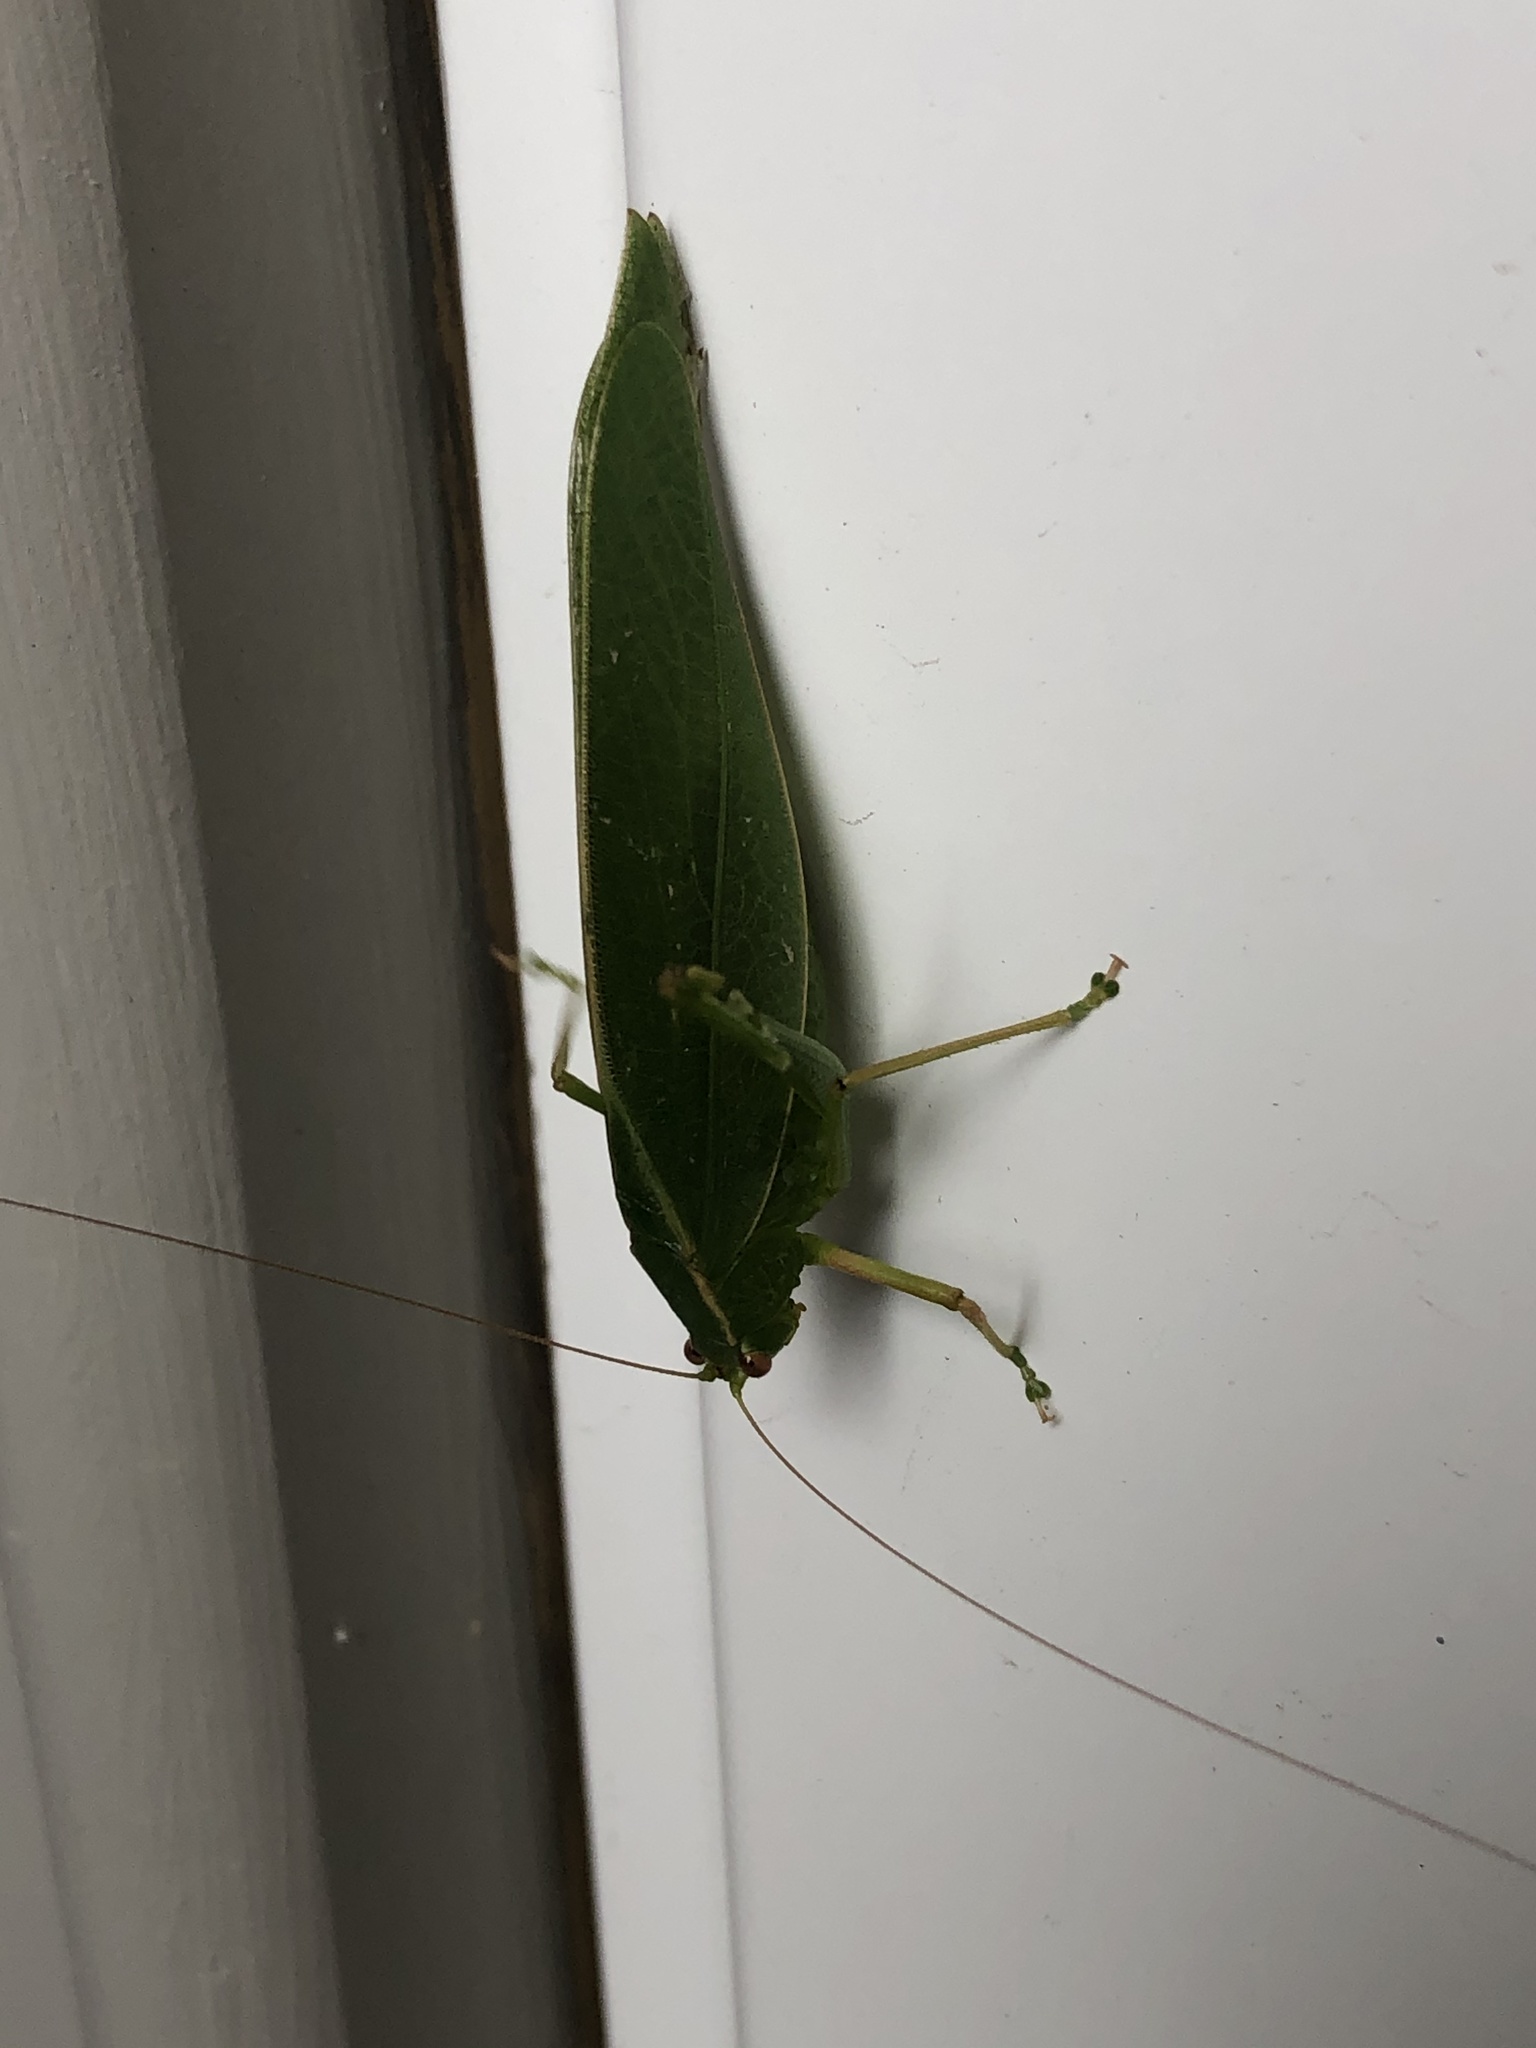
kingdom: Animalia
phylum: Arthropoda
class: Insecta
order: Orthoptera
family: Tettigoniidae
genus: Caedicia
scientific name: Caedicia simplex
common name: Common garden katydid
